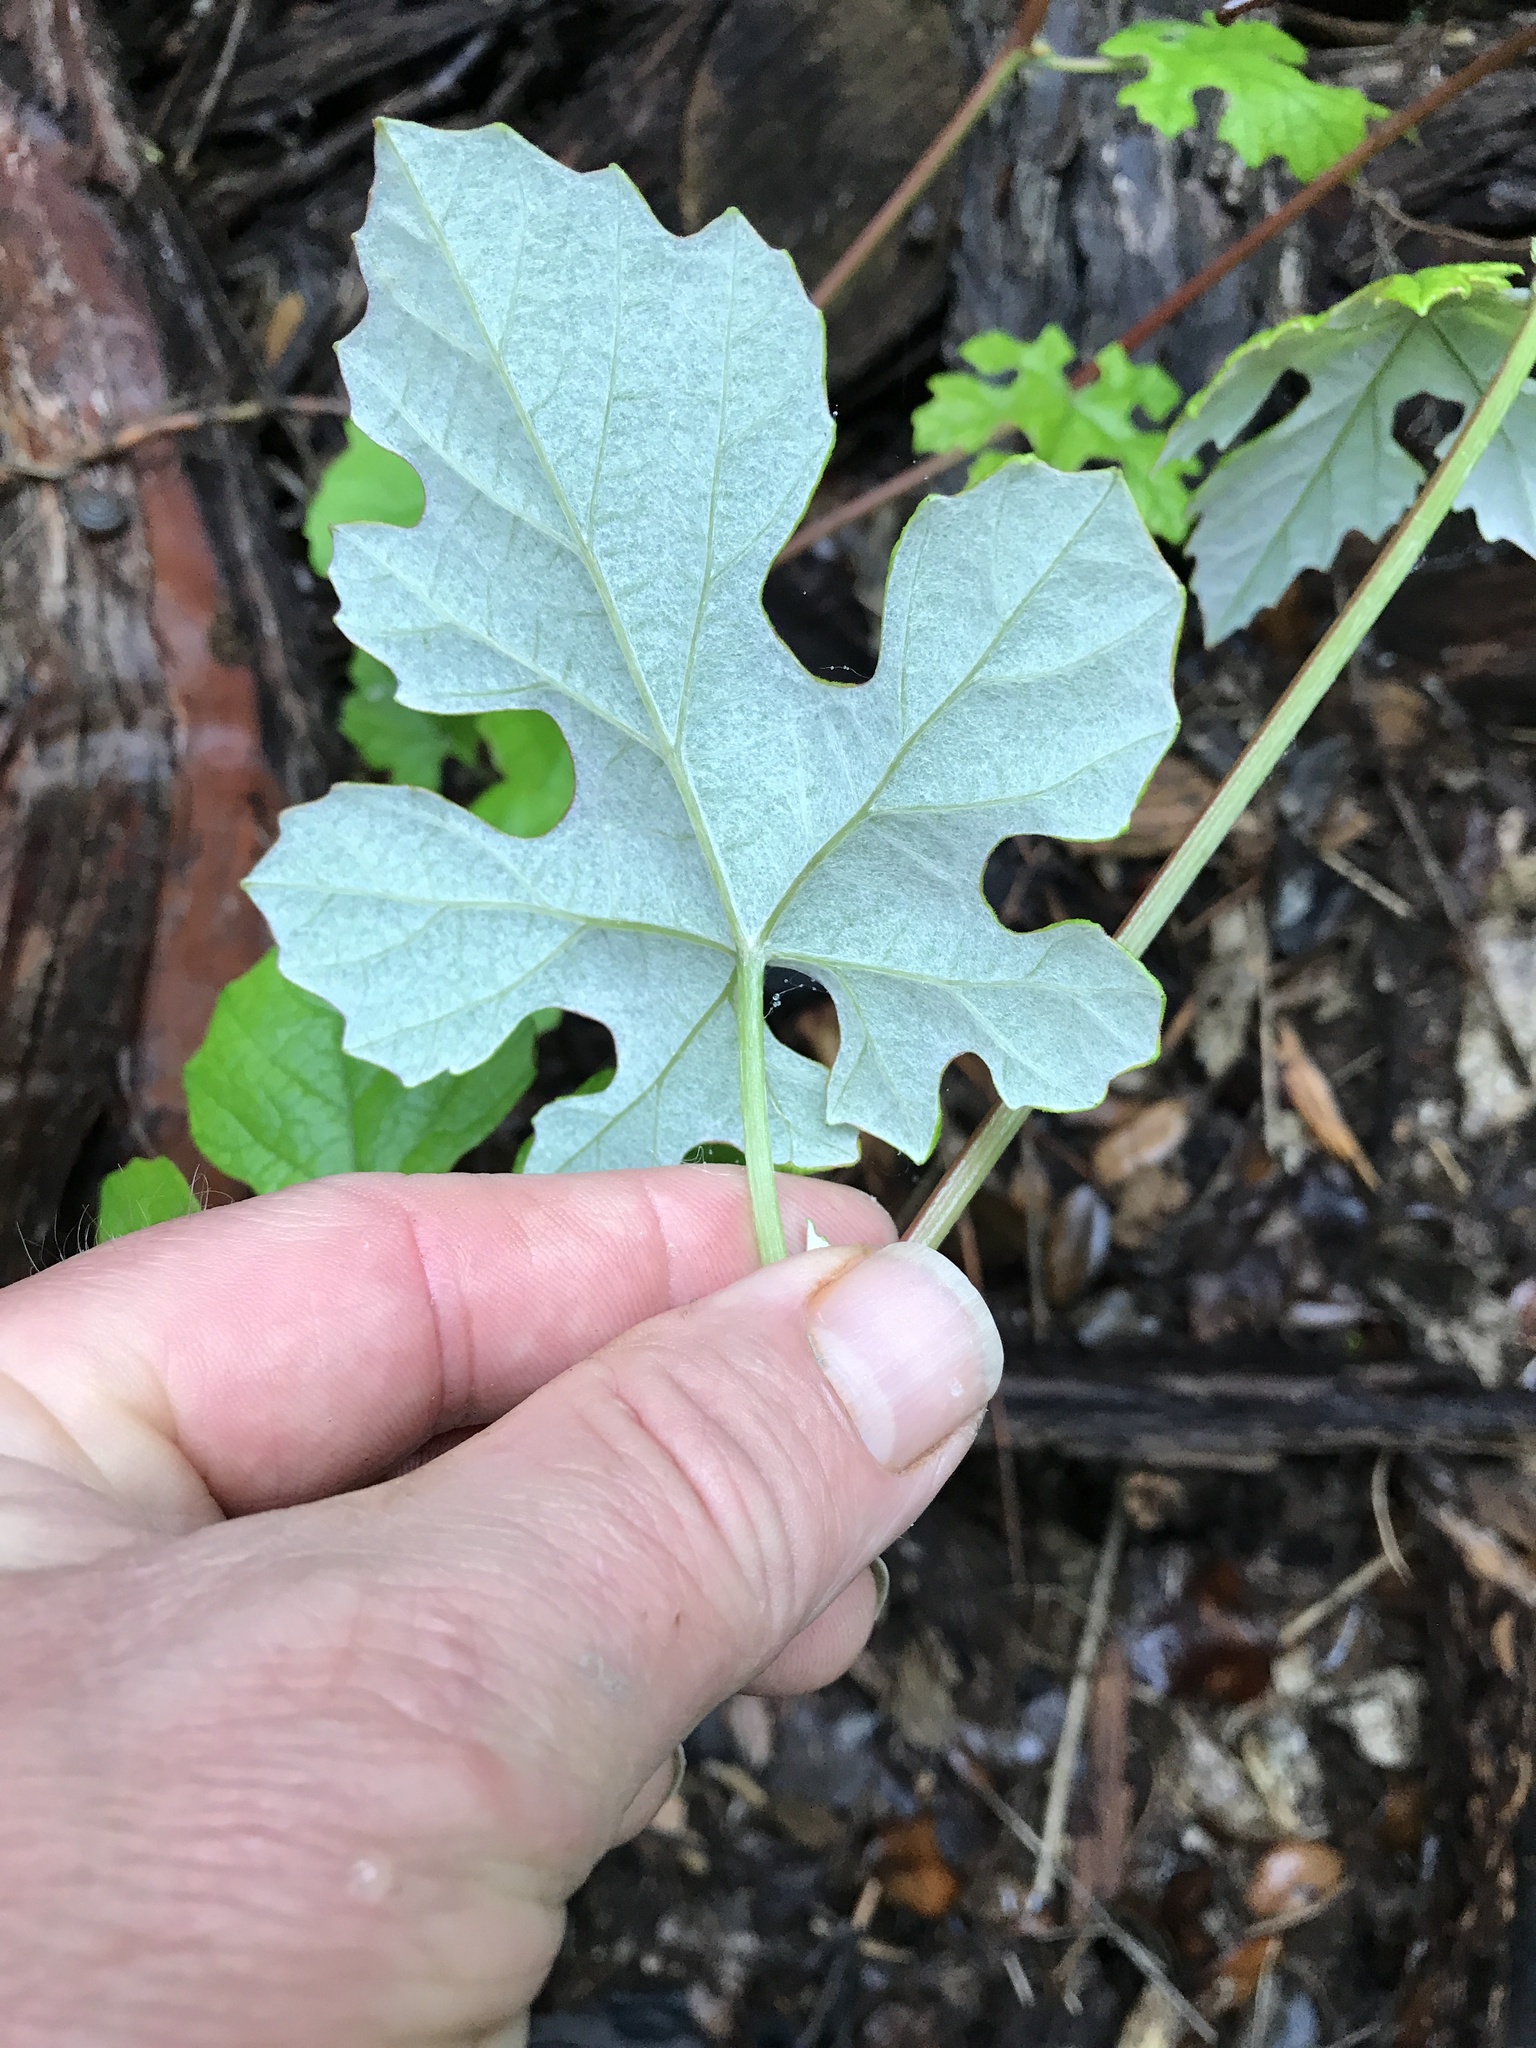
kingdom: Plantae
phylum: Tracheophyta
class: Magnoliopsida
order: Vitales
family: Vitaceae
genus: Vitis
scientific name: Vitis mustangensis
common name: Mustang grape
